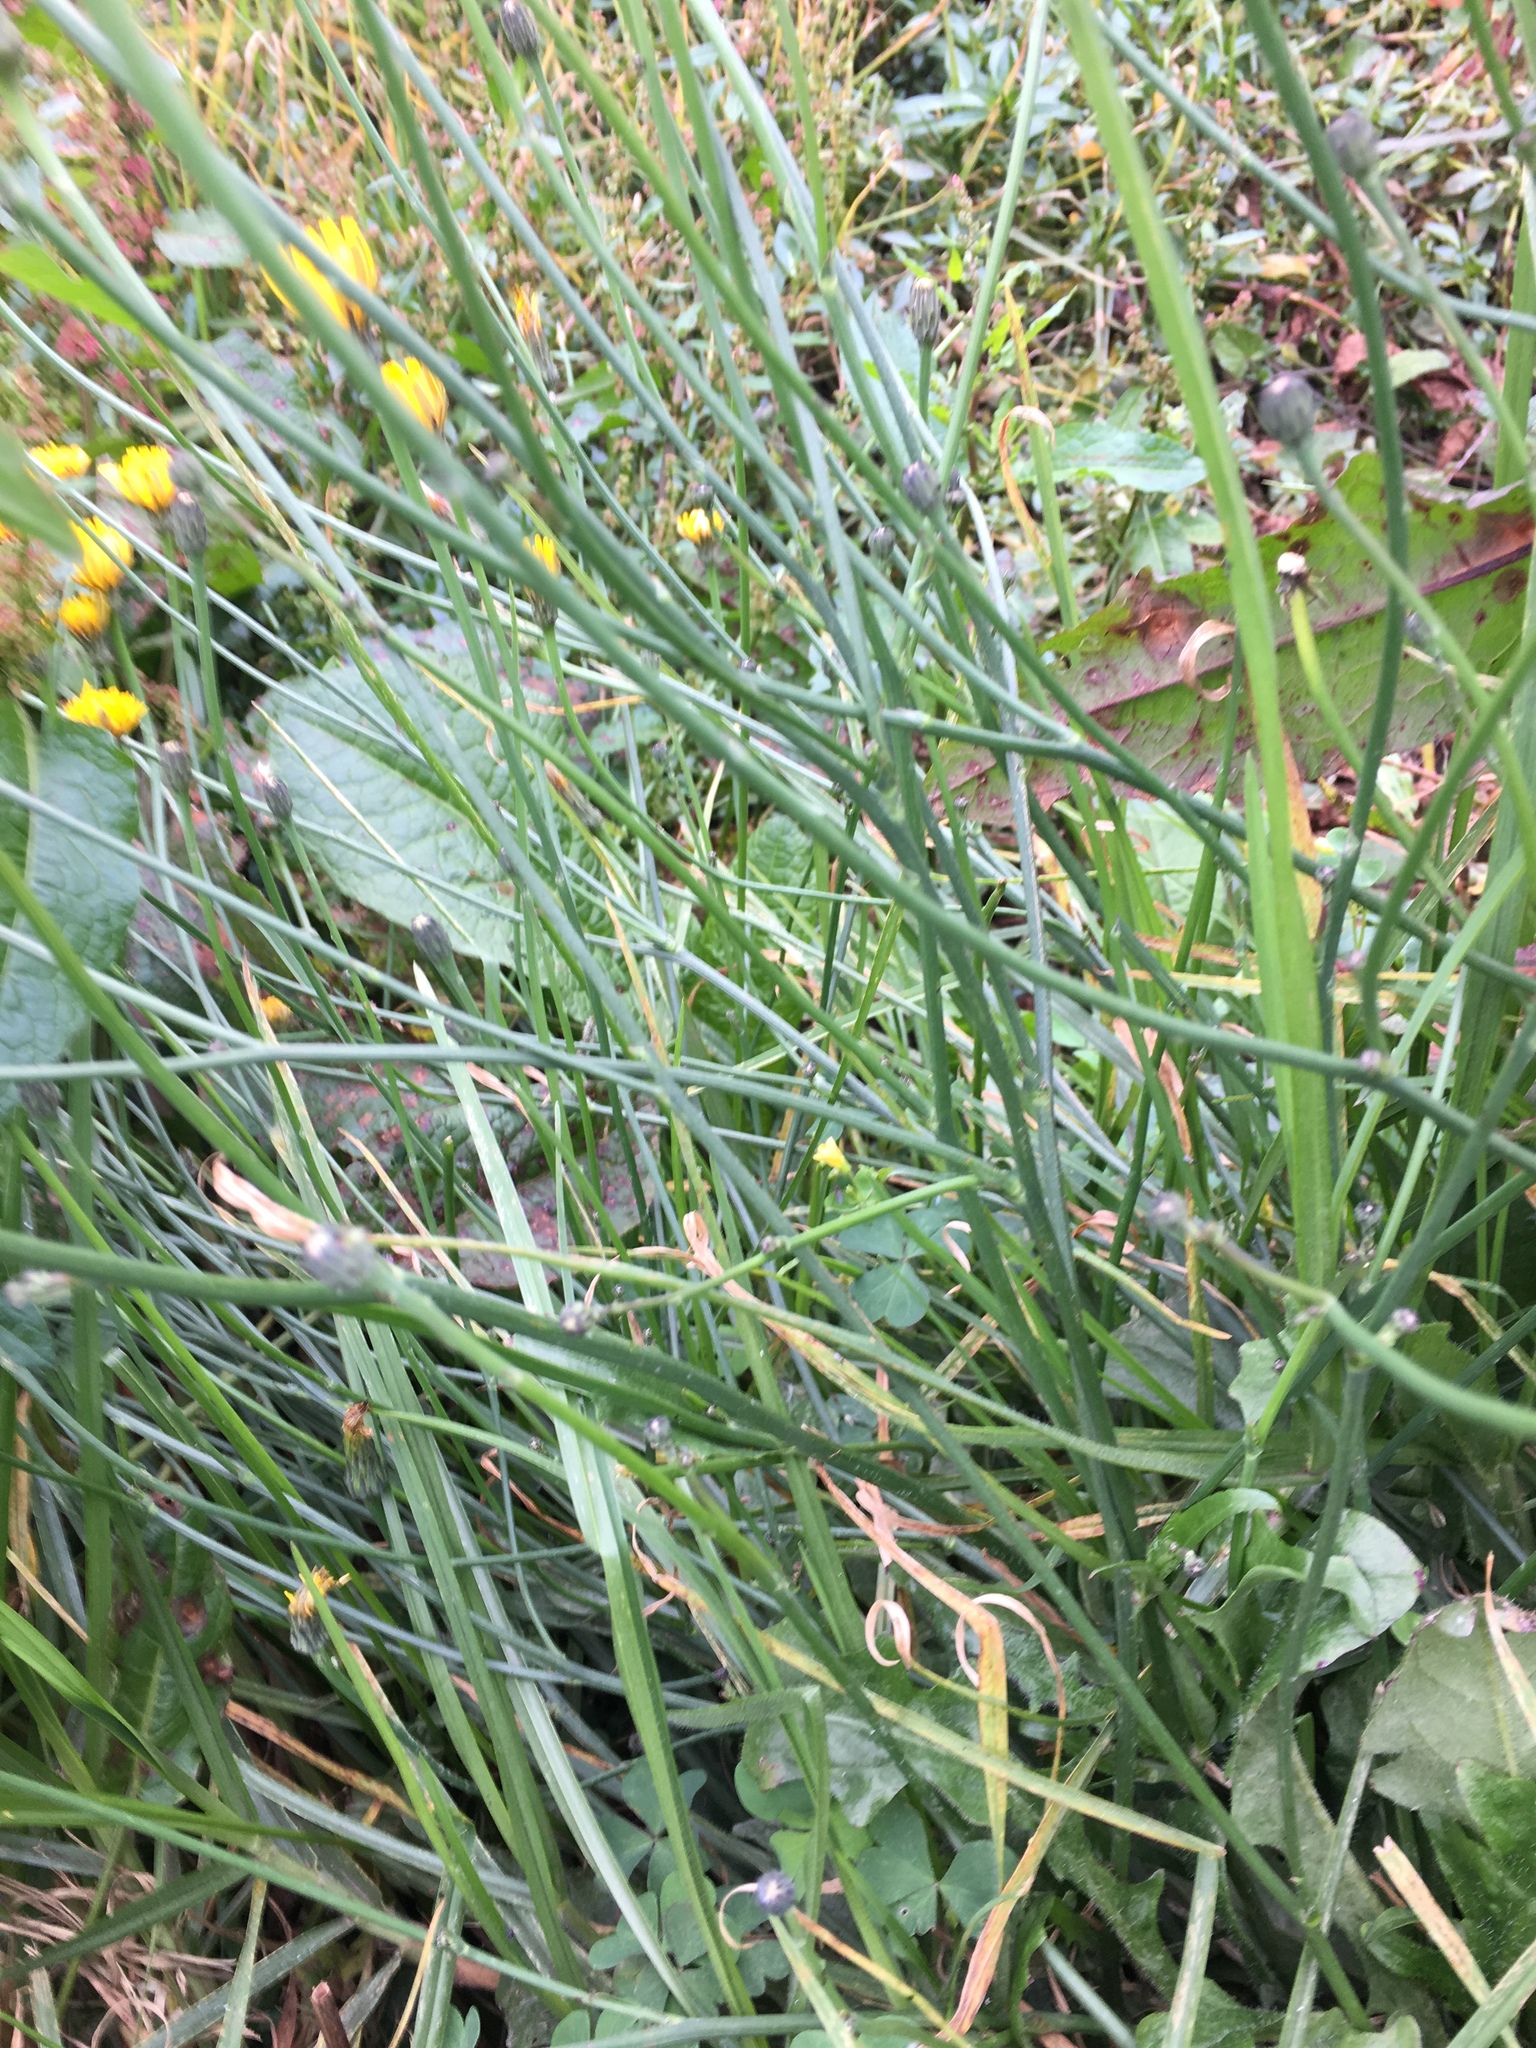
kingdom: Plantae
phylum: Tracheophyta
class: Magnoliopsida
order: Asterales
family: Asteraceae
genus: Hypochaeris
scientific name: Hypochaeris radicata
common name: Flatweed
